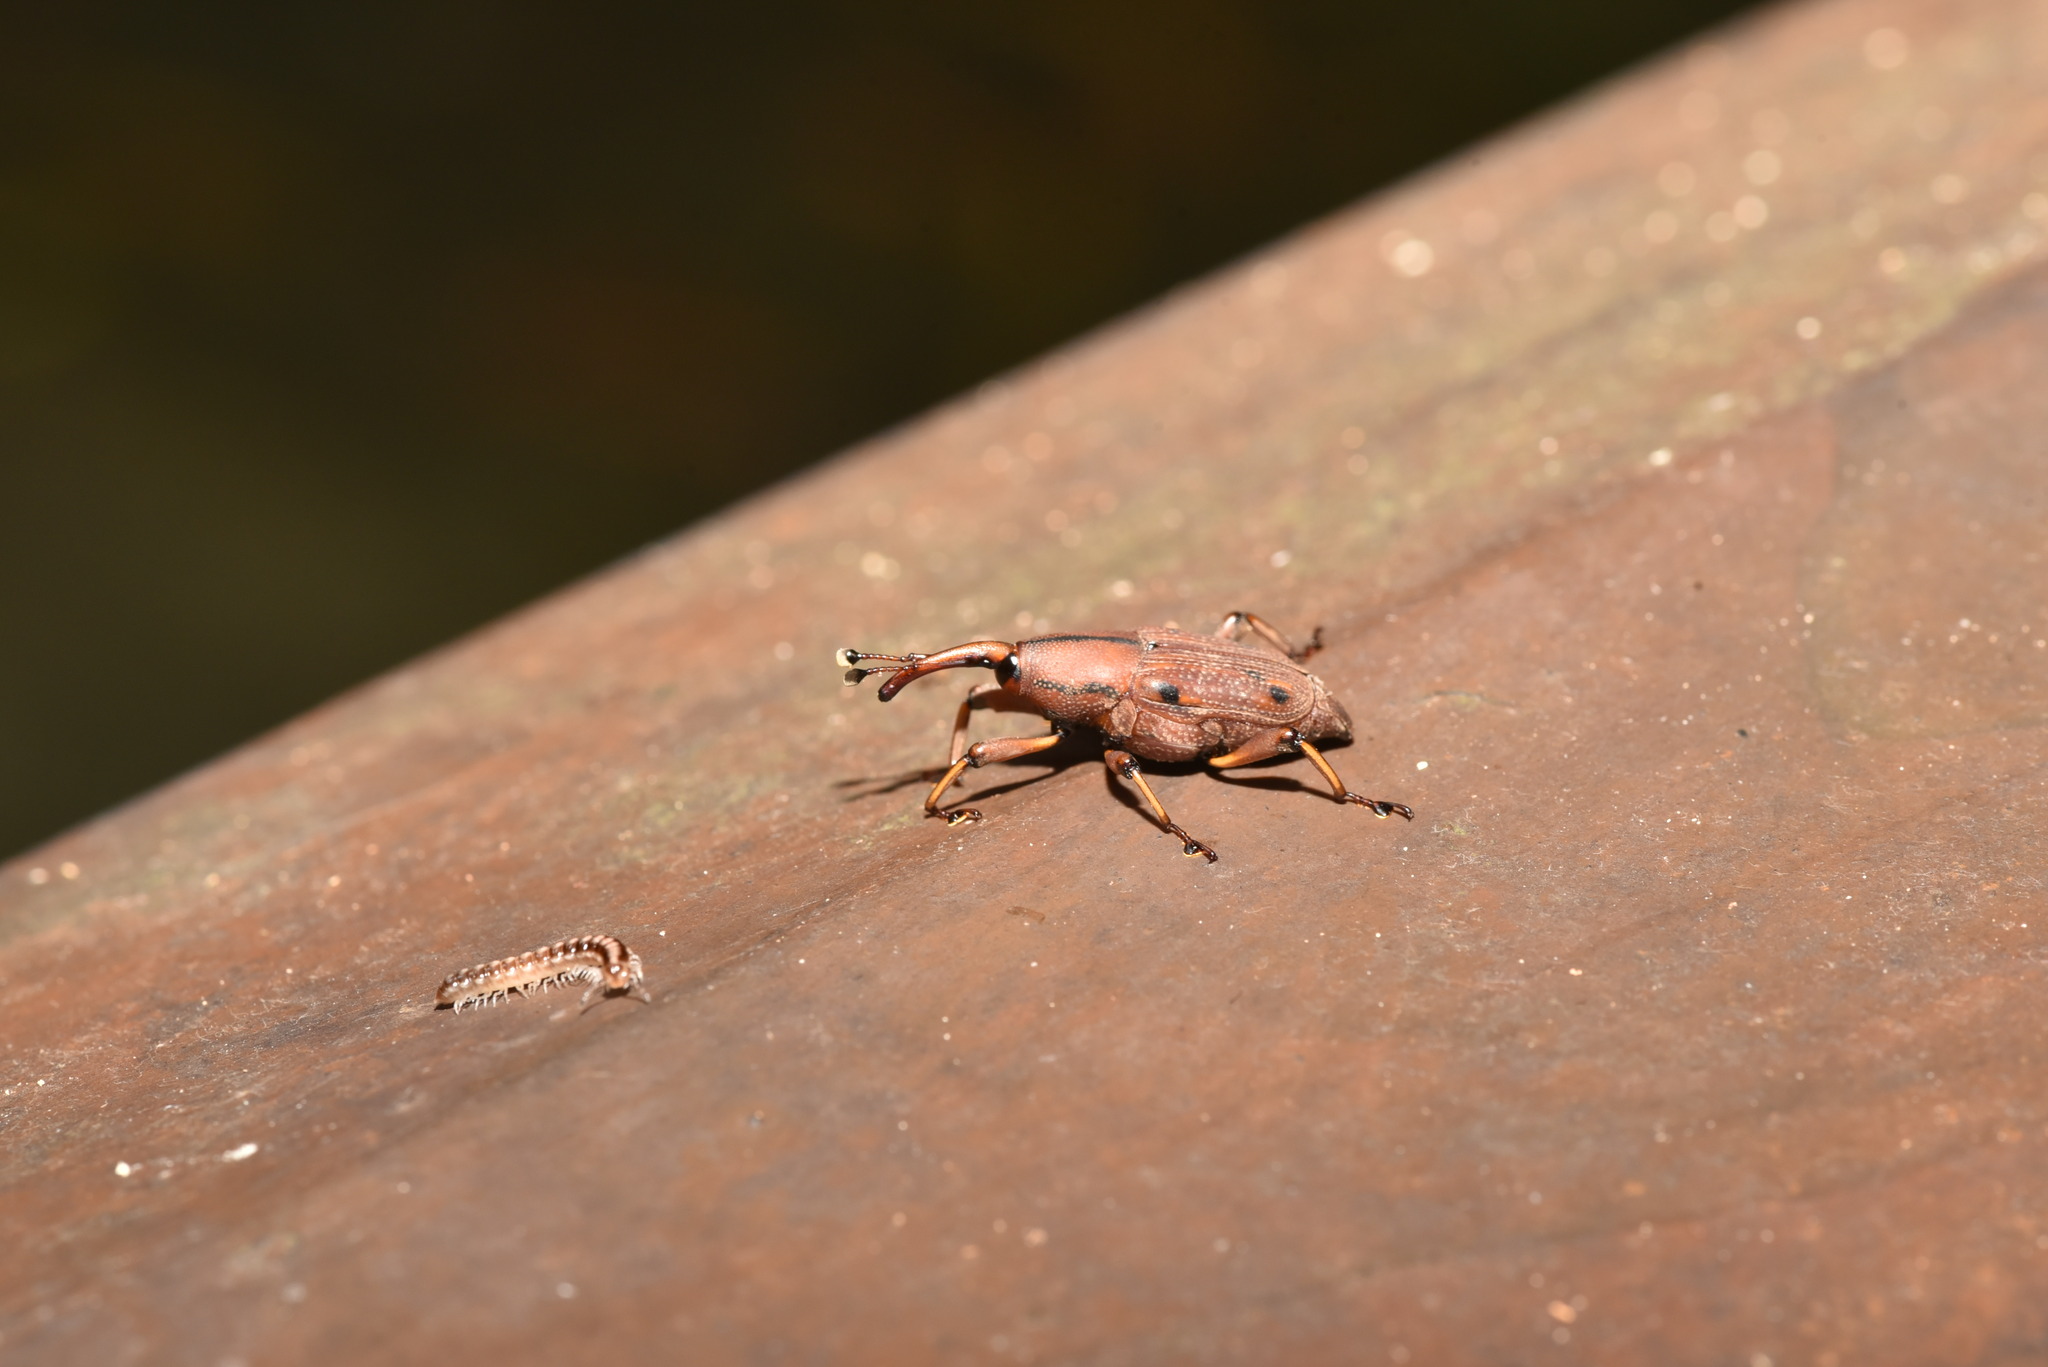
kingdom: Animalia
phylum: Arthropoda
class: Insecta
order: Coleoptera
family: Dryophthoridae
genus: Prodioctes
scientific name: Prodioctes formosanus
